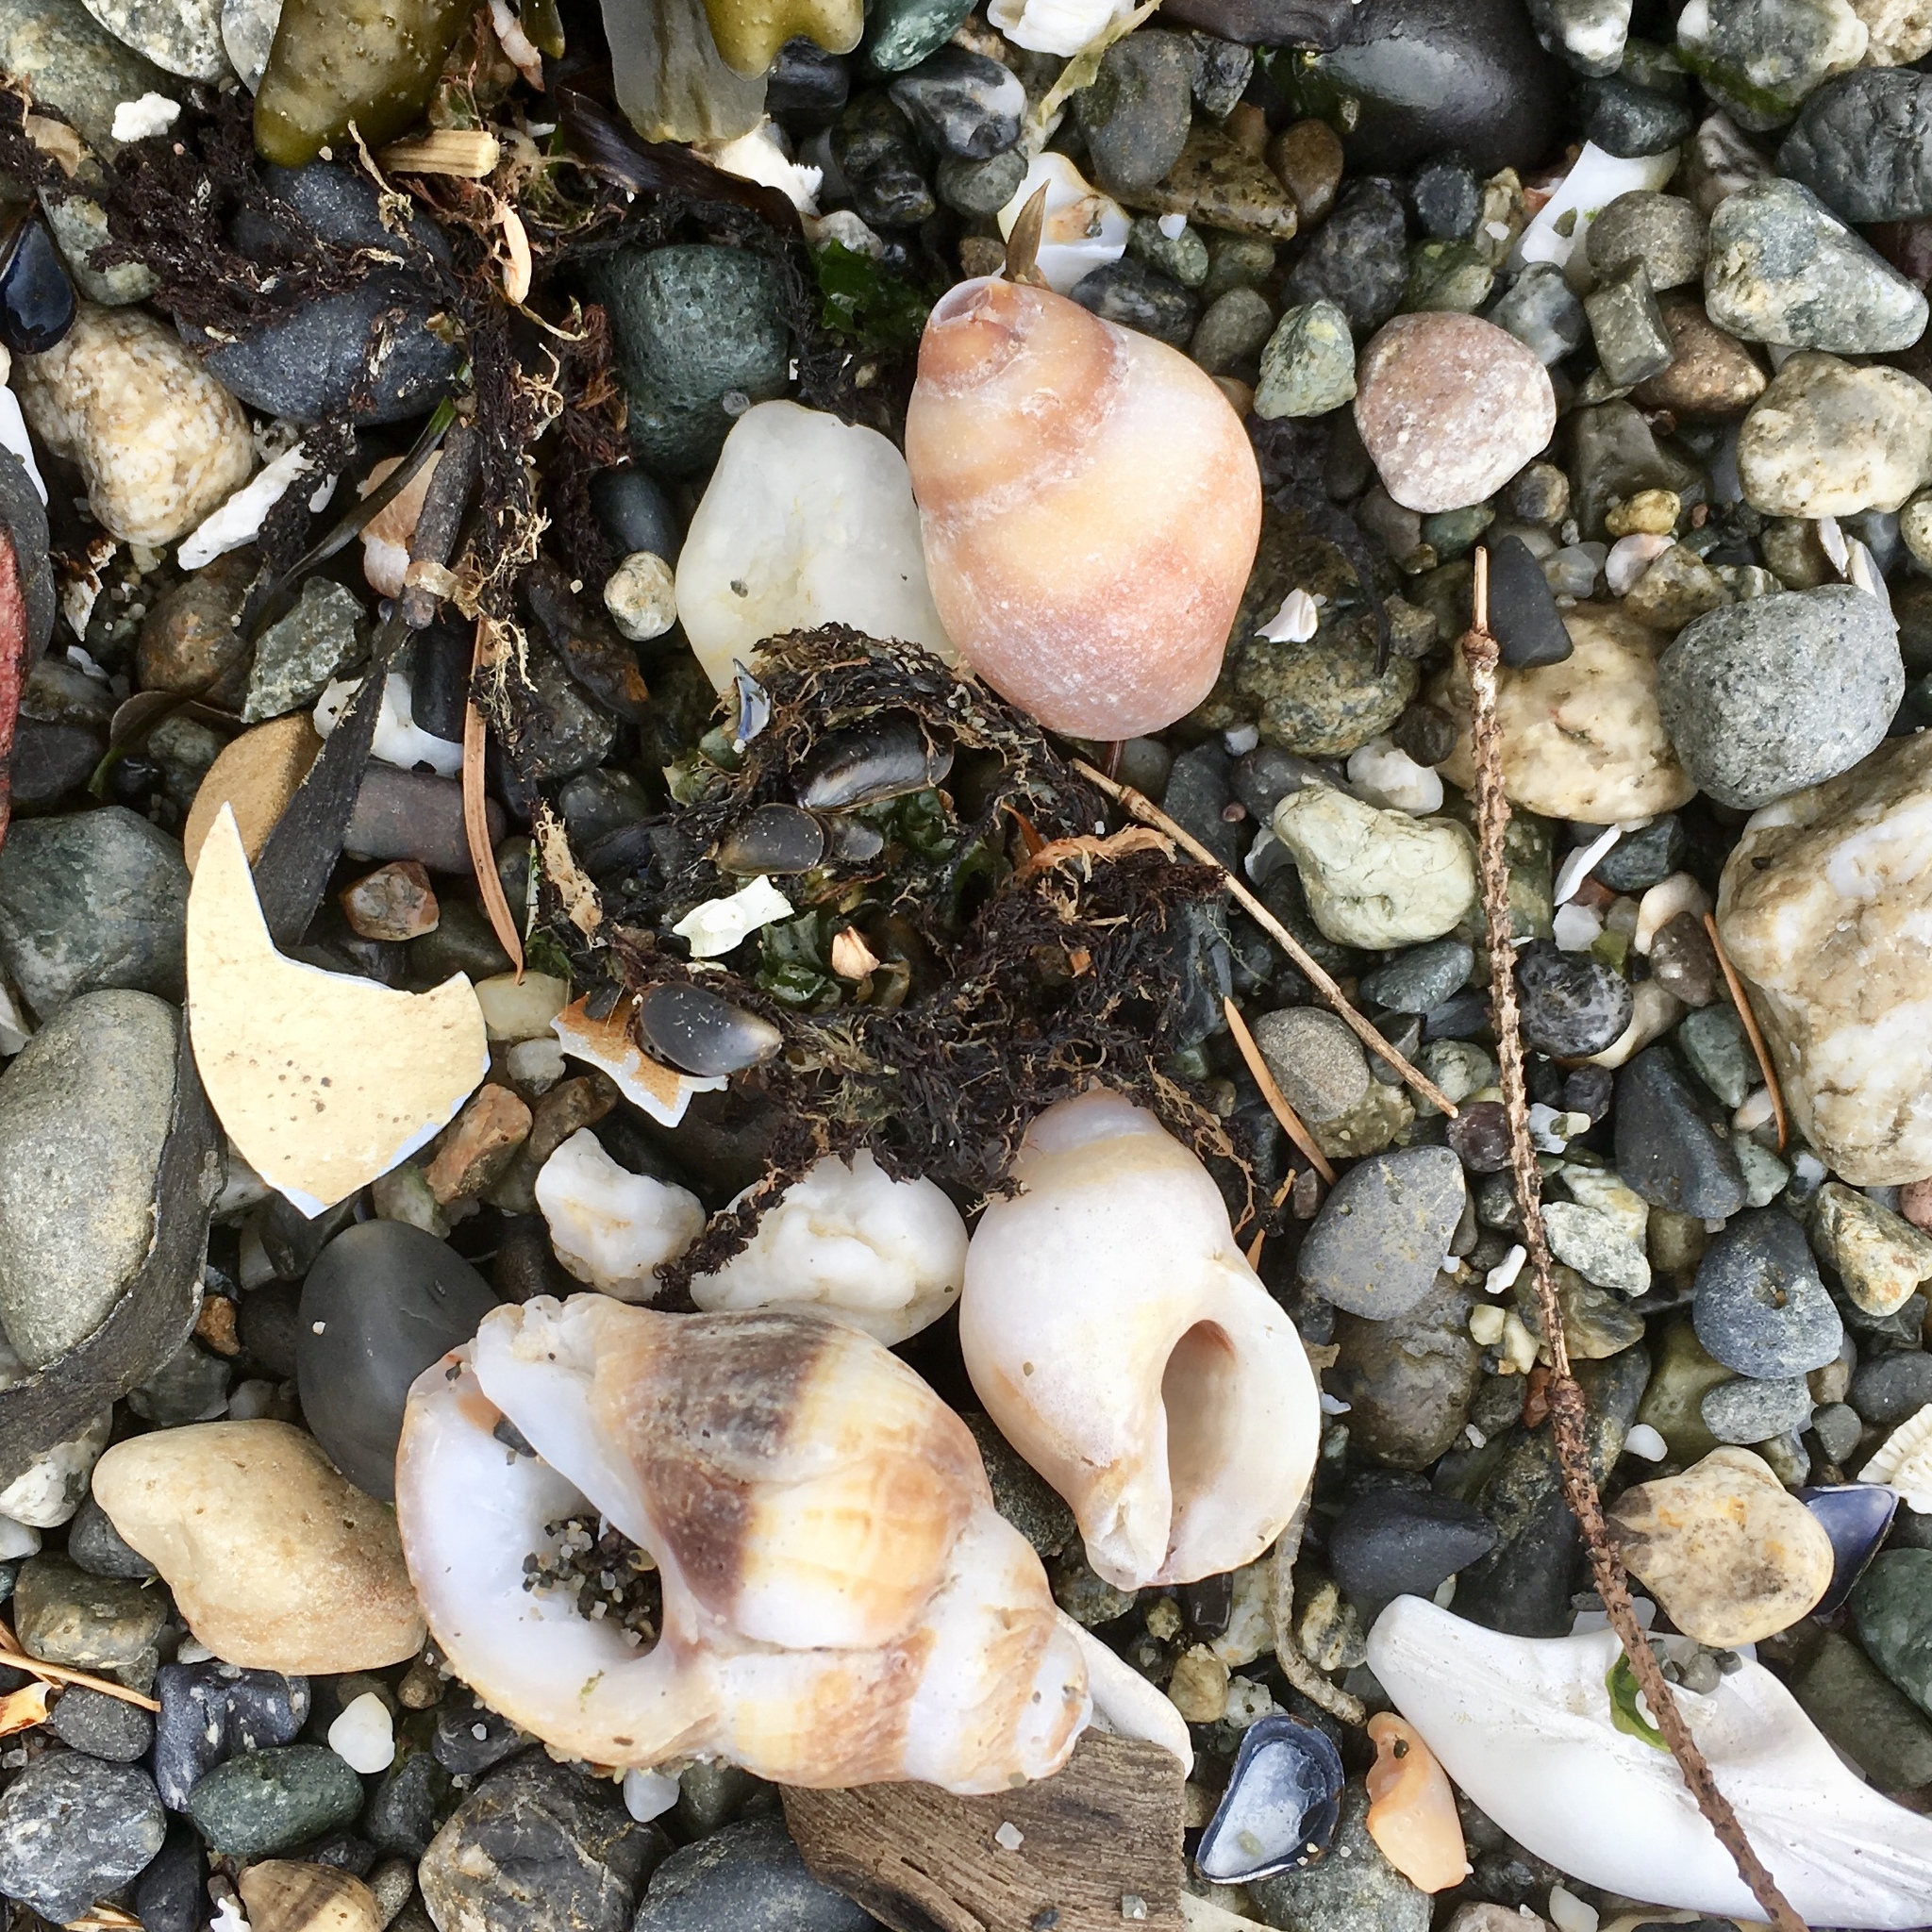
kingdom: Animalia
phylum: Mollusca
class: Gastropoda
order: Neogastropoda
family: Muricidae
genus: Nucella
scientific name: Nucella lamellosa
